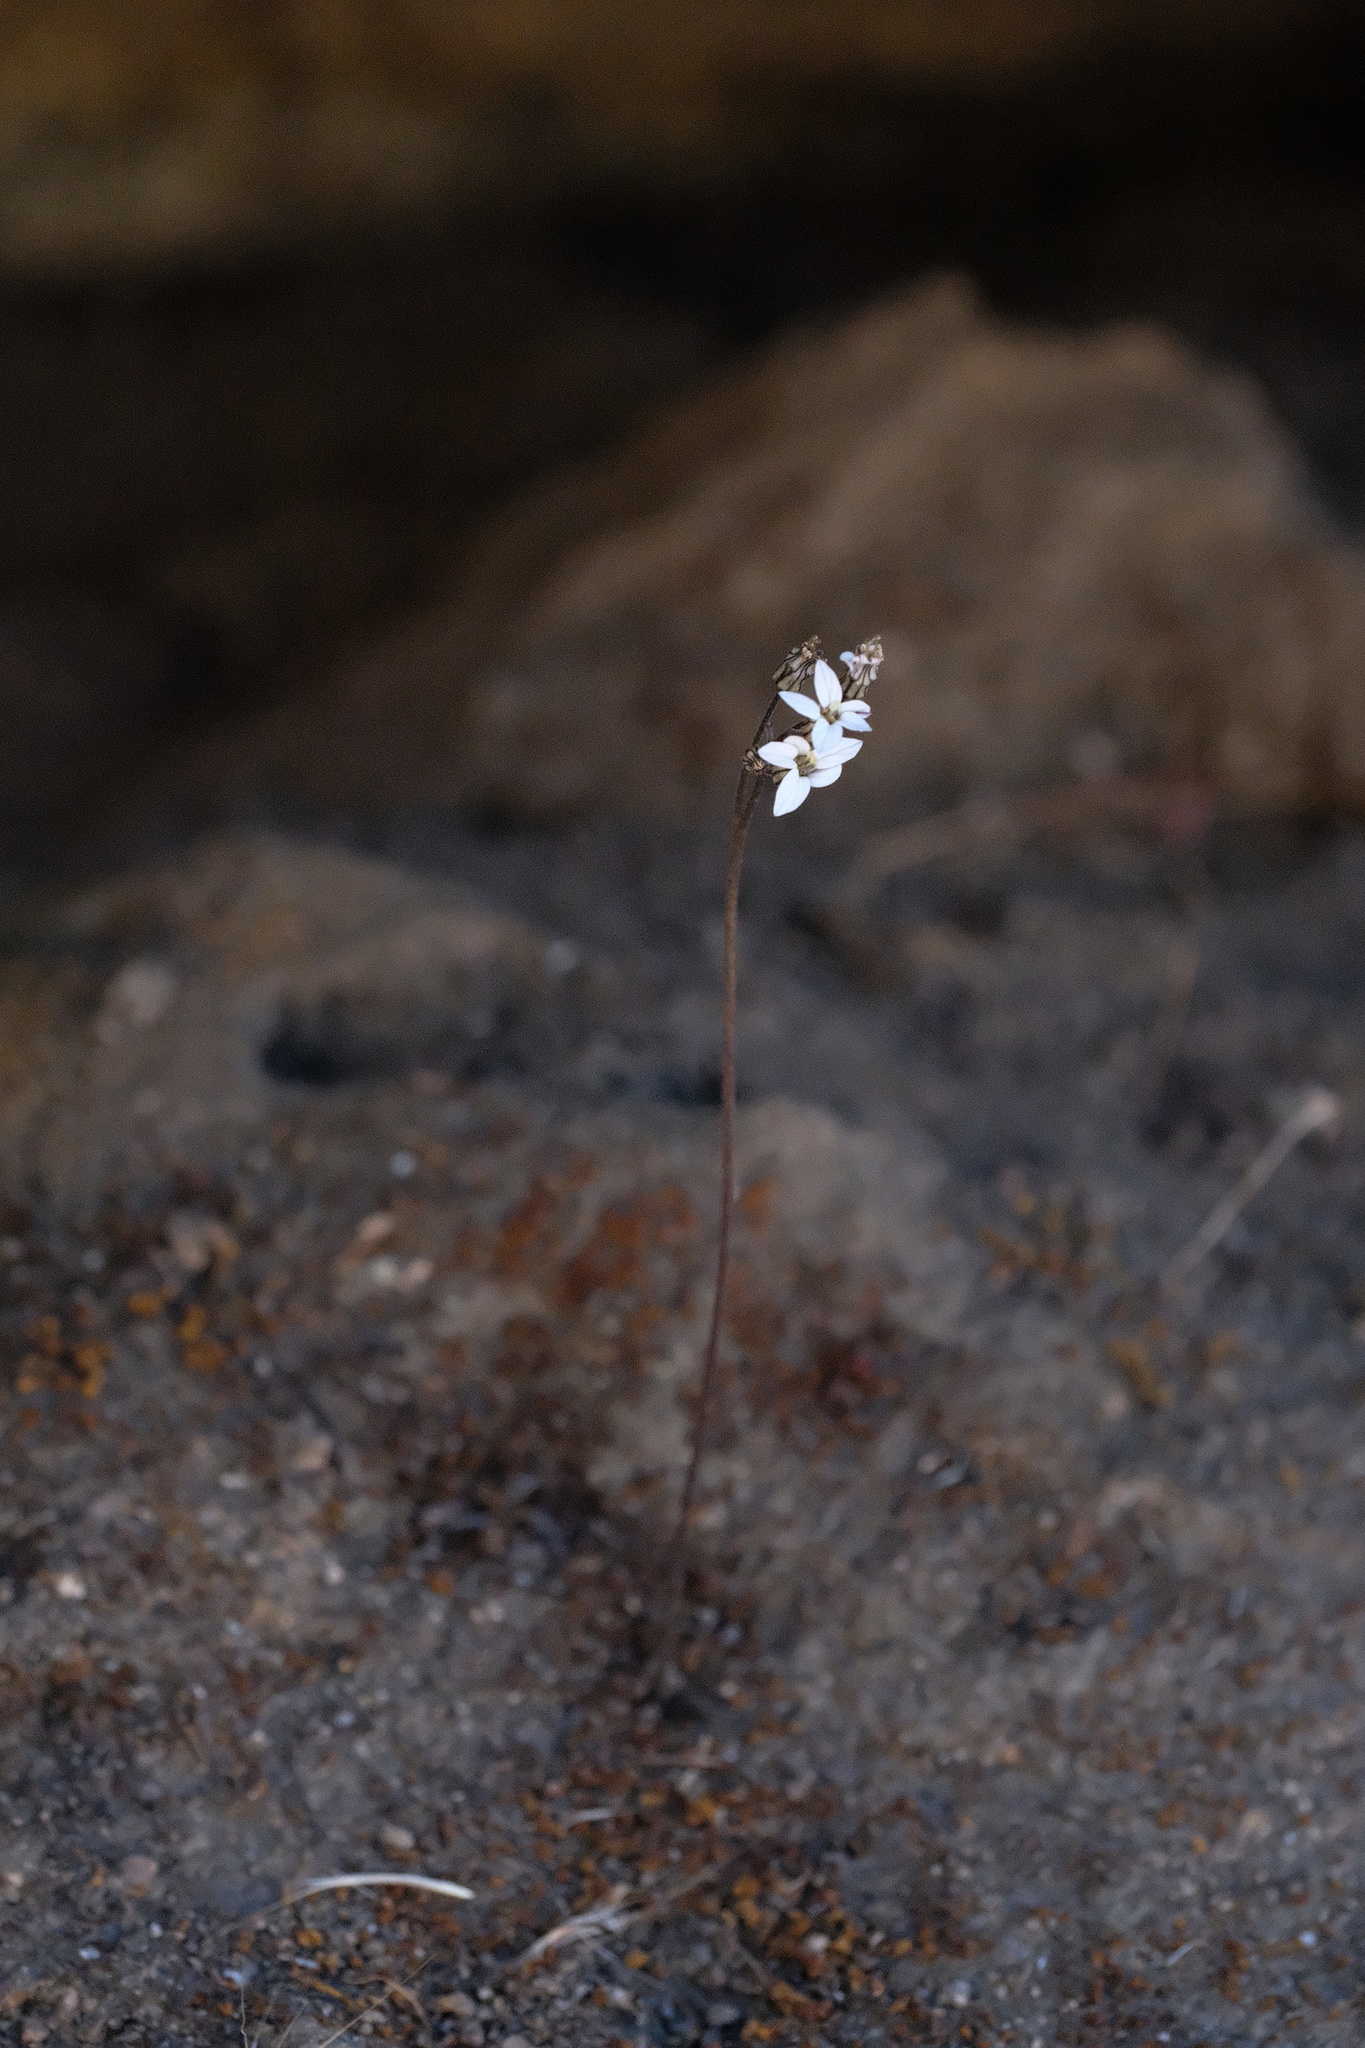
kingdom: Plantae
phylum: Tracheophyta
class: Magnoliopsida
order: Saxifragales
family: Saxifragaceae
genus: Jepsonia
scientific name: Jepsonia parryi
